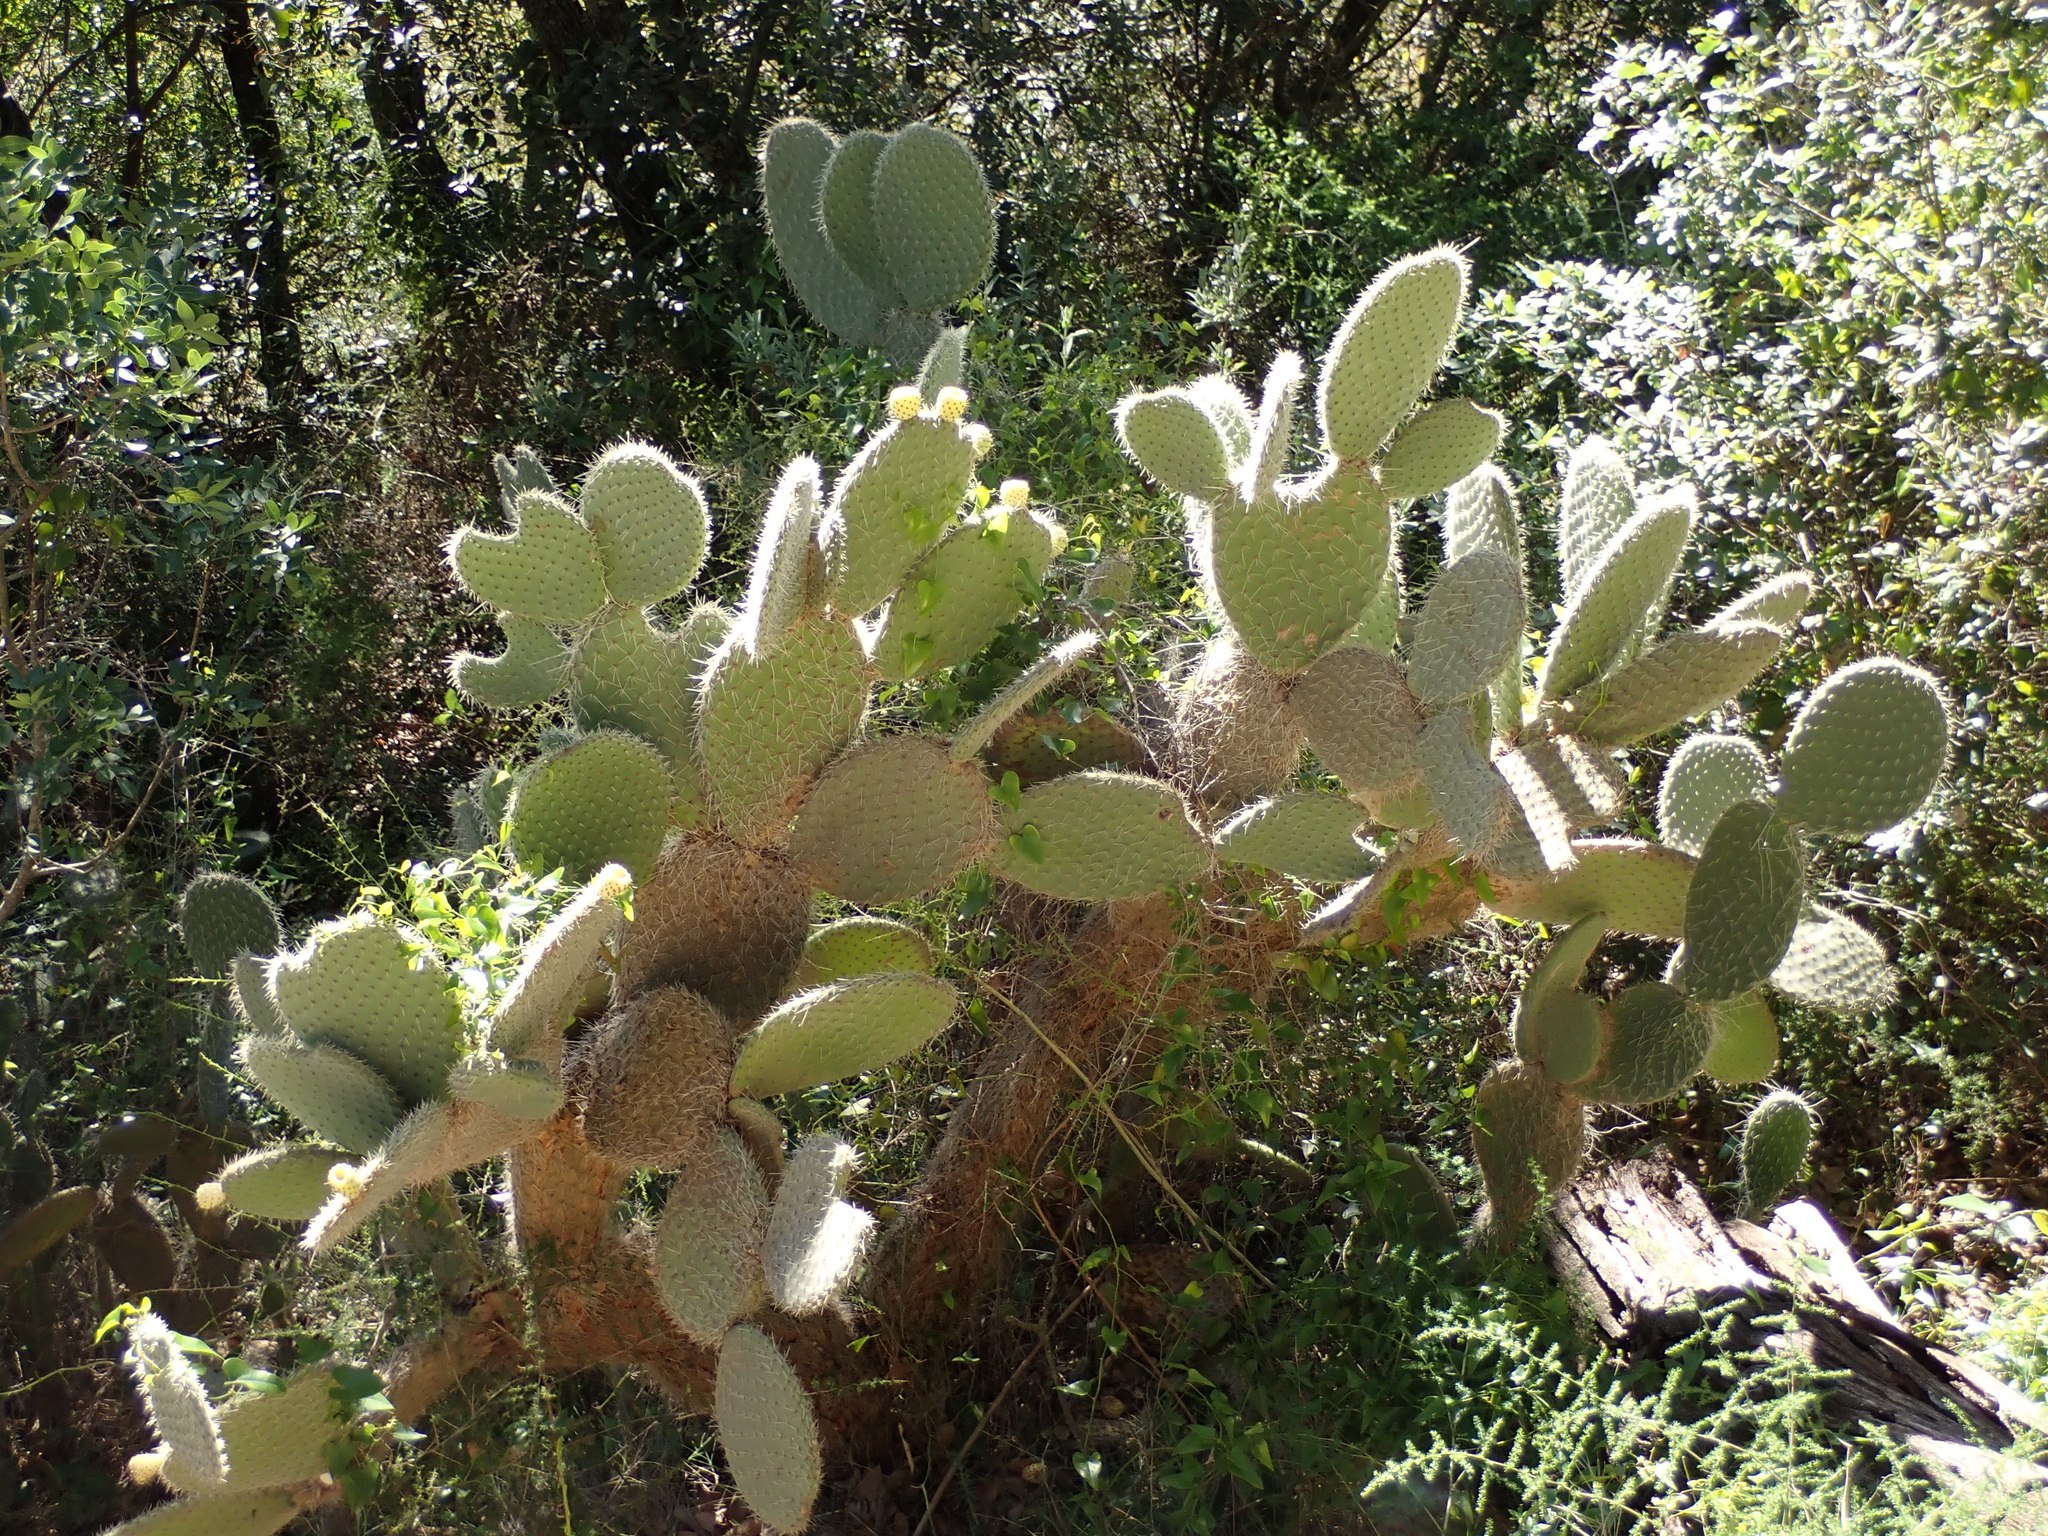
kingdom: Plantae
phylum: Tracheophyta
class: Magnoliopsida
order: Caryophyllales
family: Cactaceae
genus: Opuntia
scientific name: Opuntia leucotricha
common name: Arborescent pricklypear
